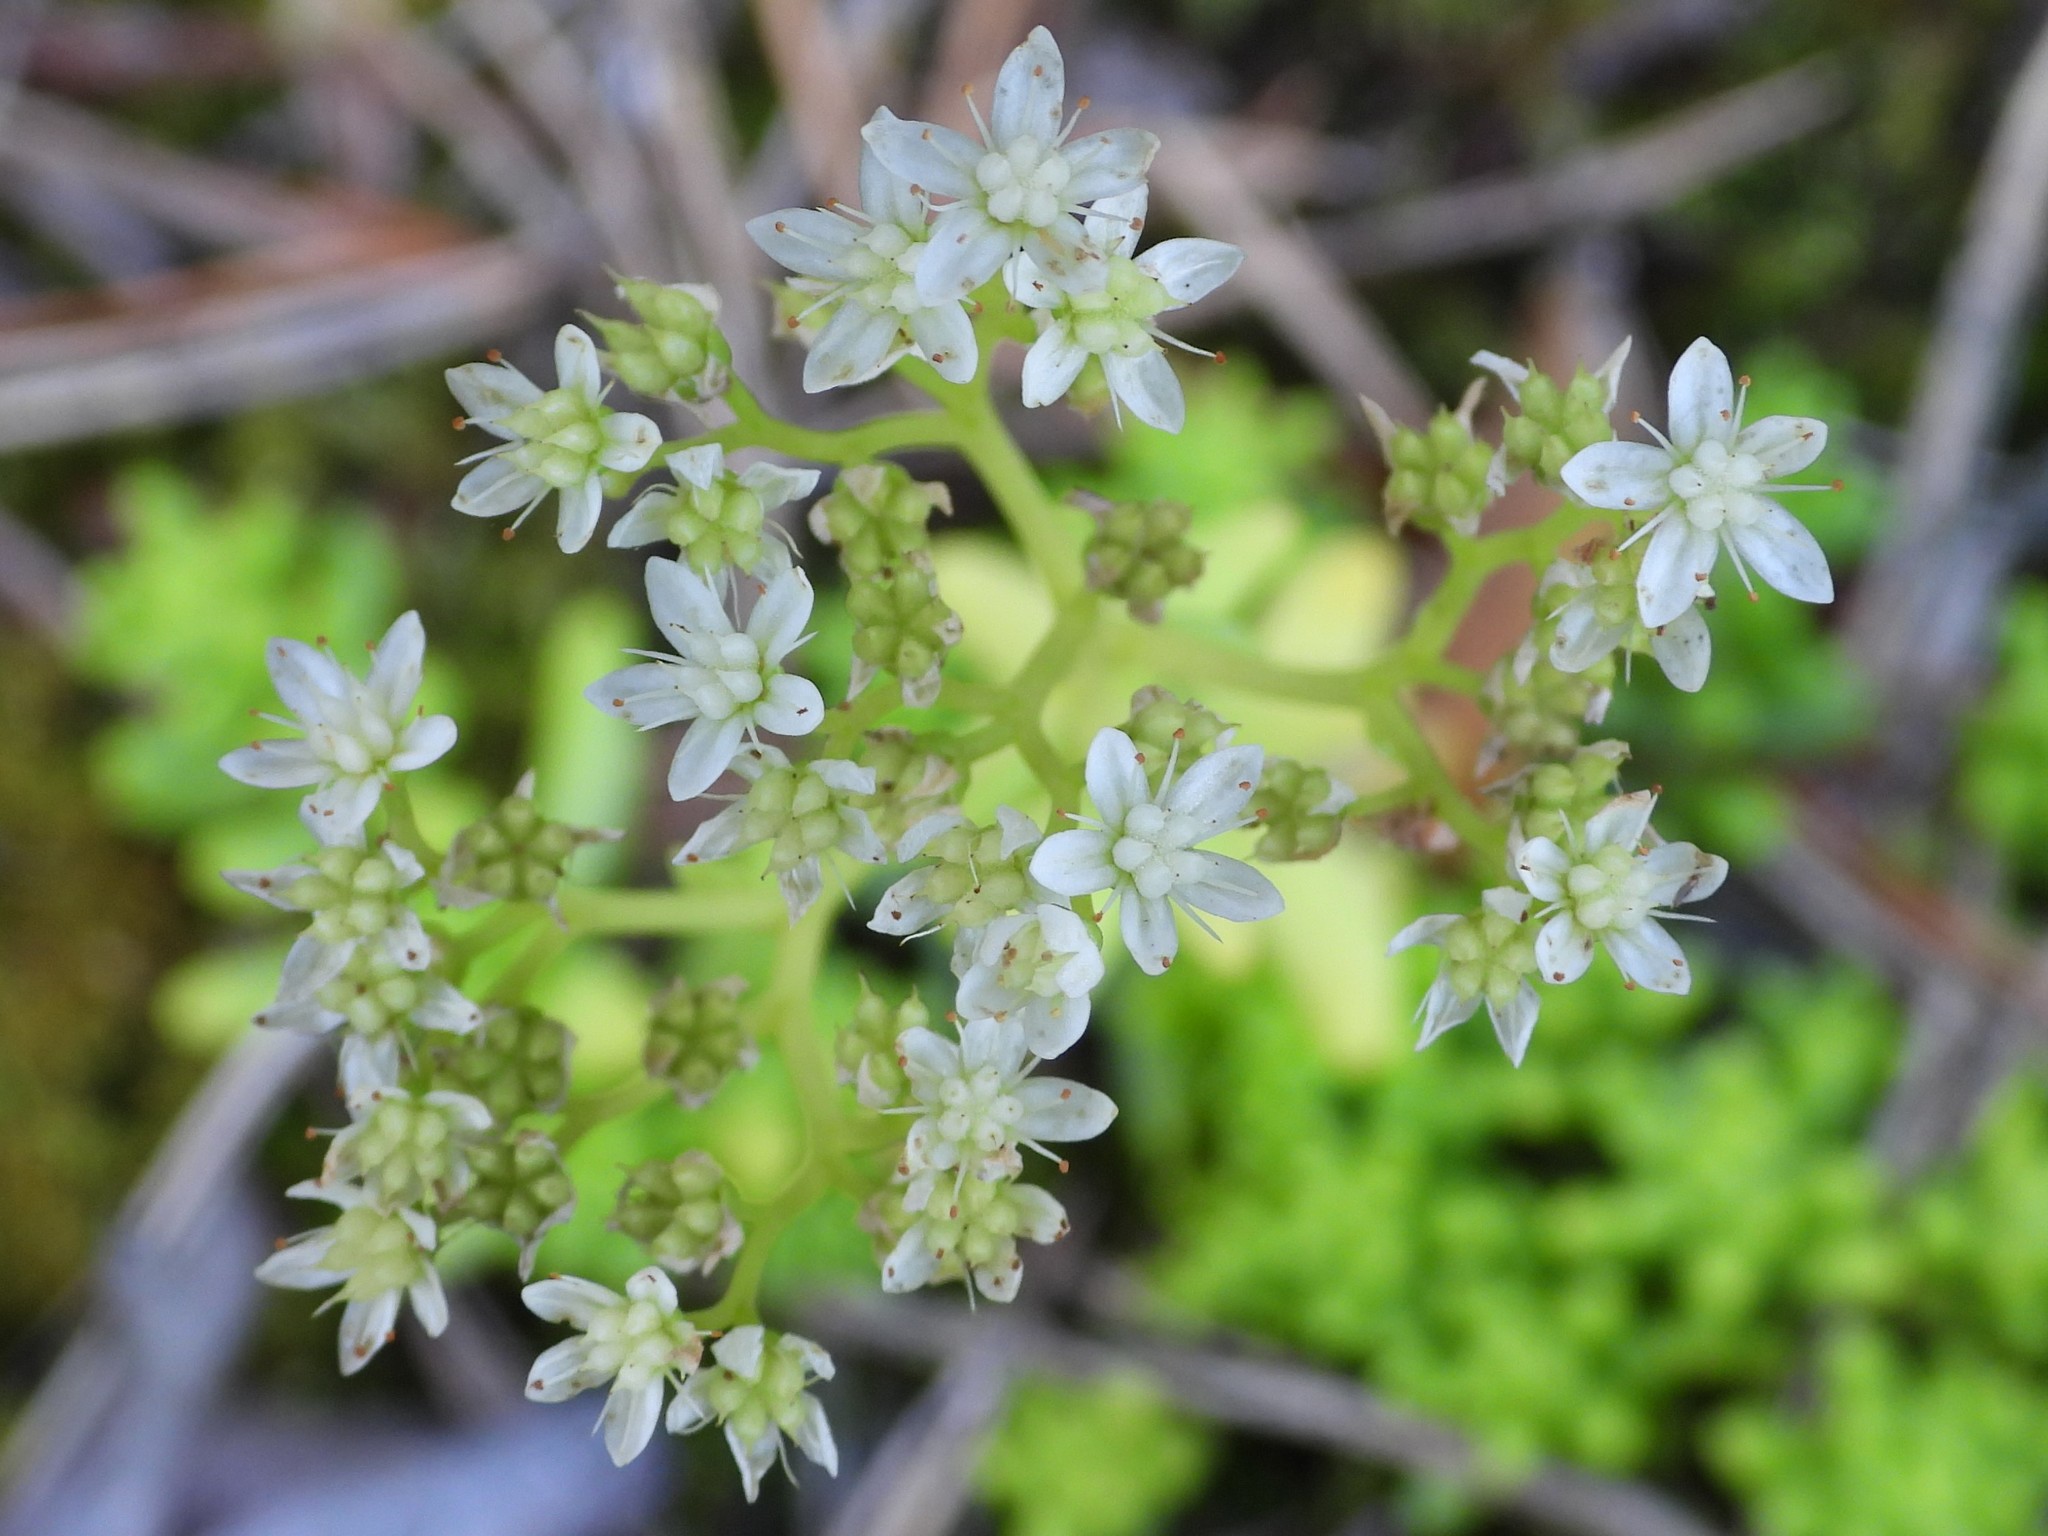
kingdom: Plantae
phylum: Tracheophyta
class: Magnoliopsida
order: Saxifragales
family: Crassulaceae
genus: Sedum
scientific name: Sedum album
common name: White stonecrop
